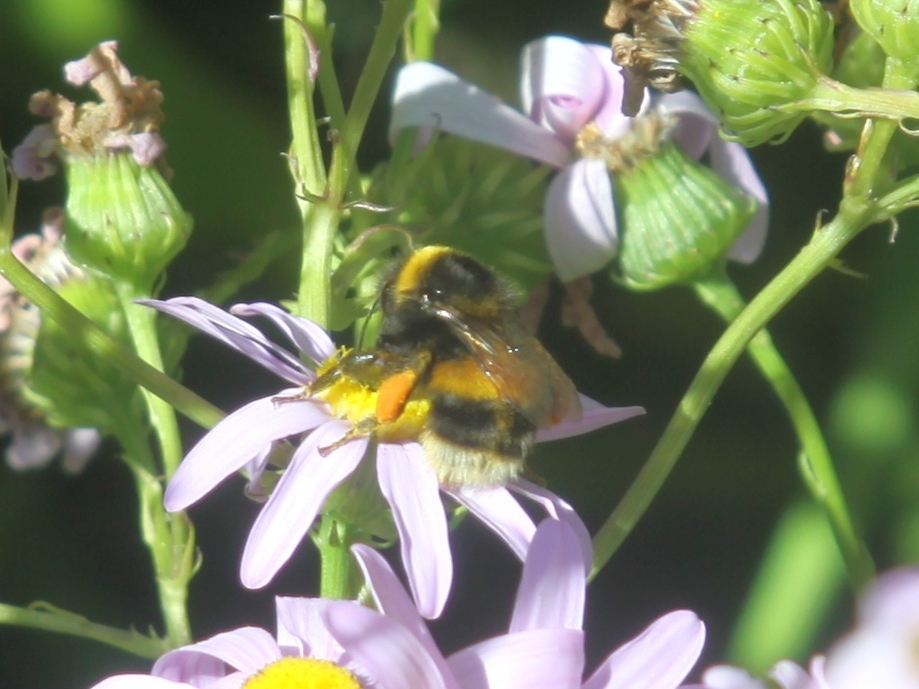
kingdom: Animalia
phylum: Arthropoda
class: Insecta
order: Hymenoptera
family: Apidae
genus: Bombus
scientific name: Bombus terrestris
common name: Buff-tailed bumblebee
